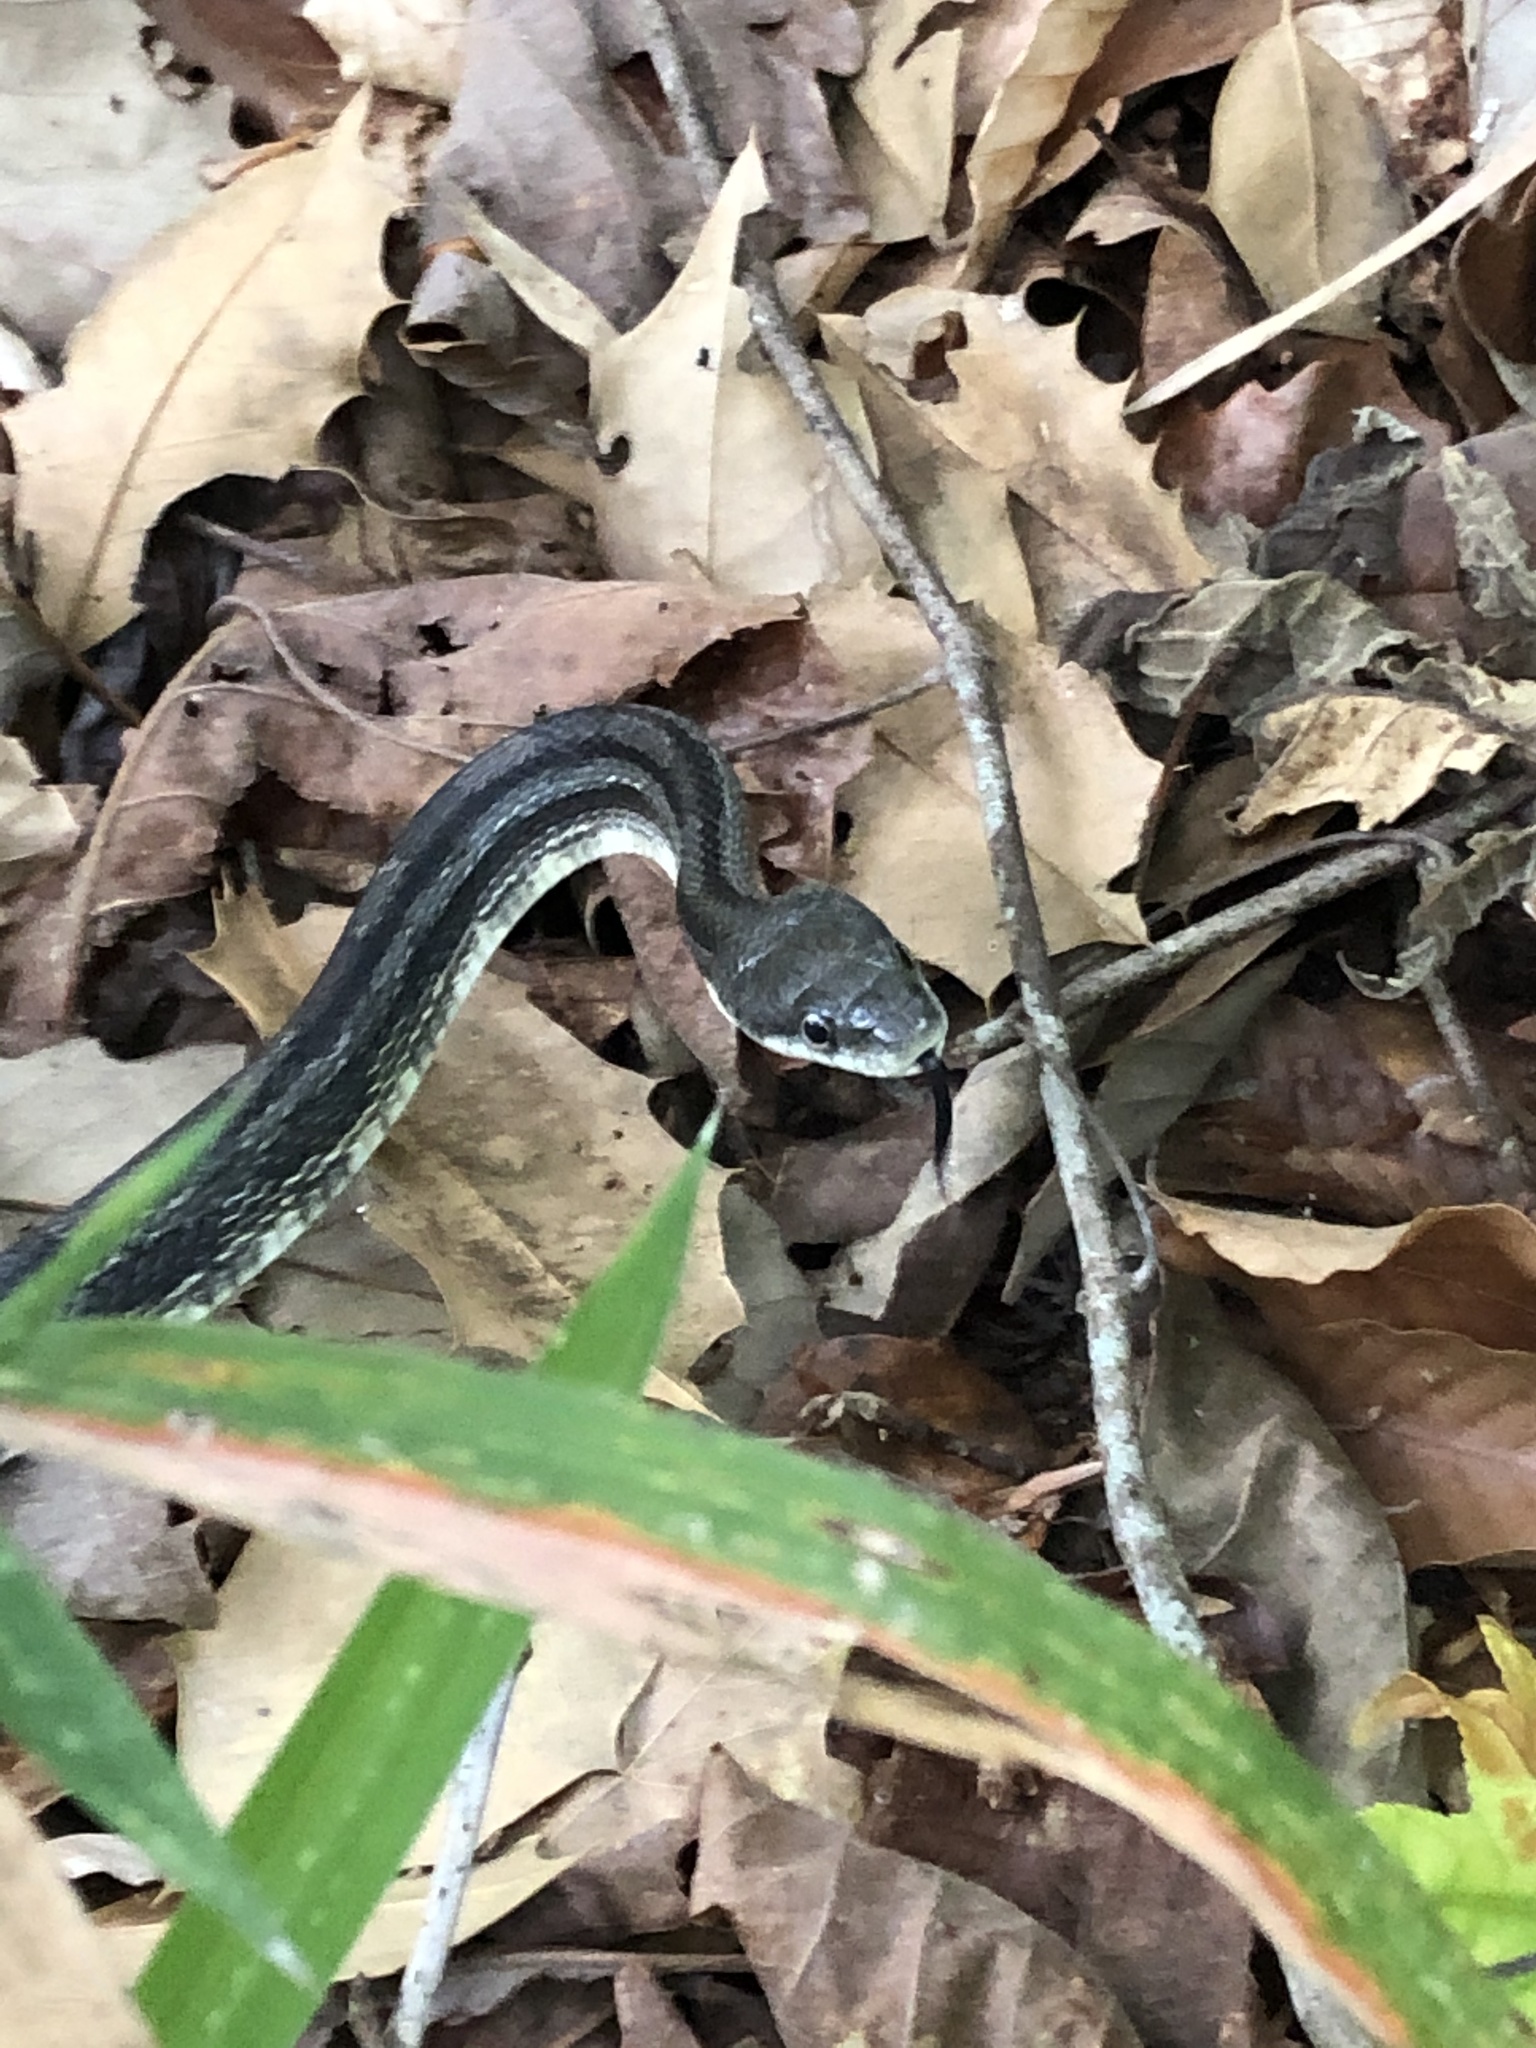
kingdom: Animalia
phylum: Chordata
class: Squamata
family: Colubridae
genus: Pantherophis
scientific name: Pantherophis alleghaniensis
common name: Eastern rat snake
